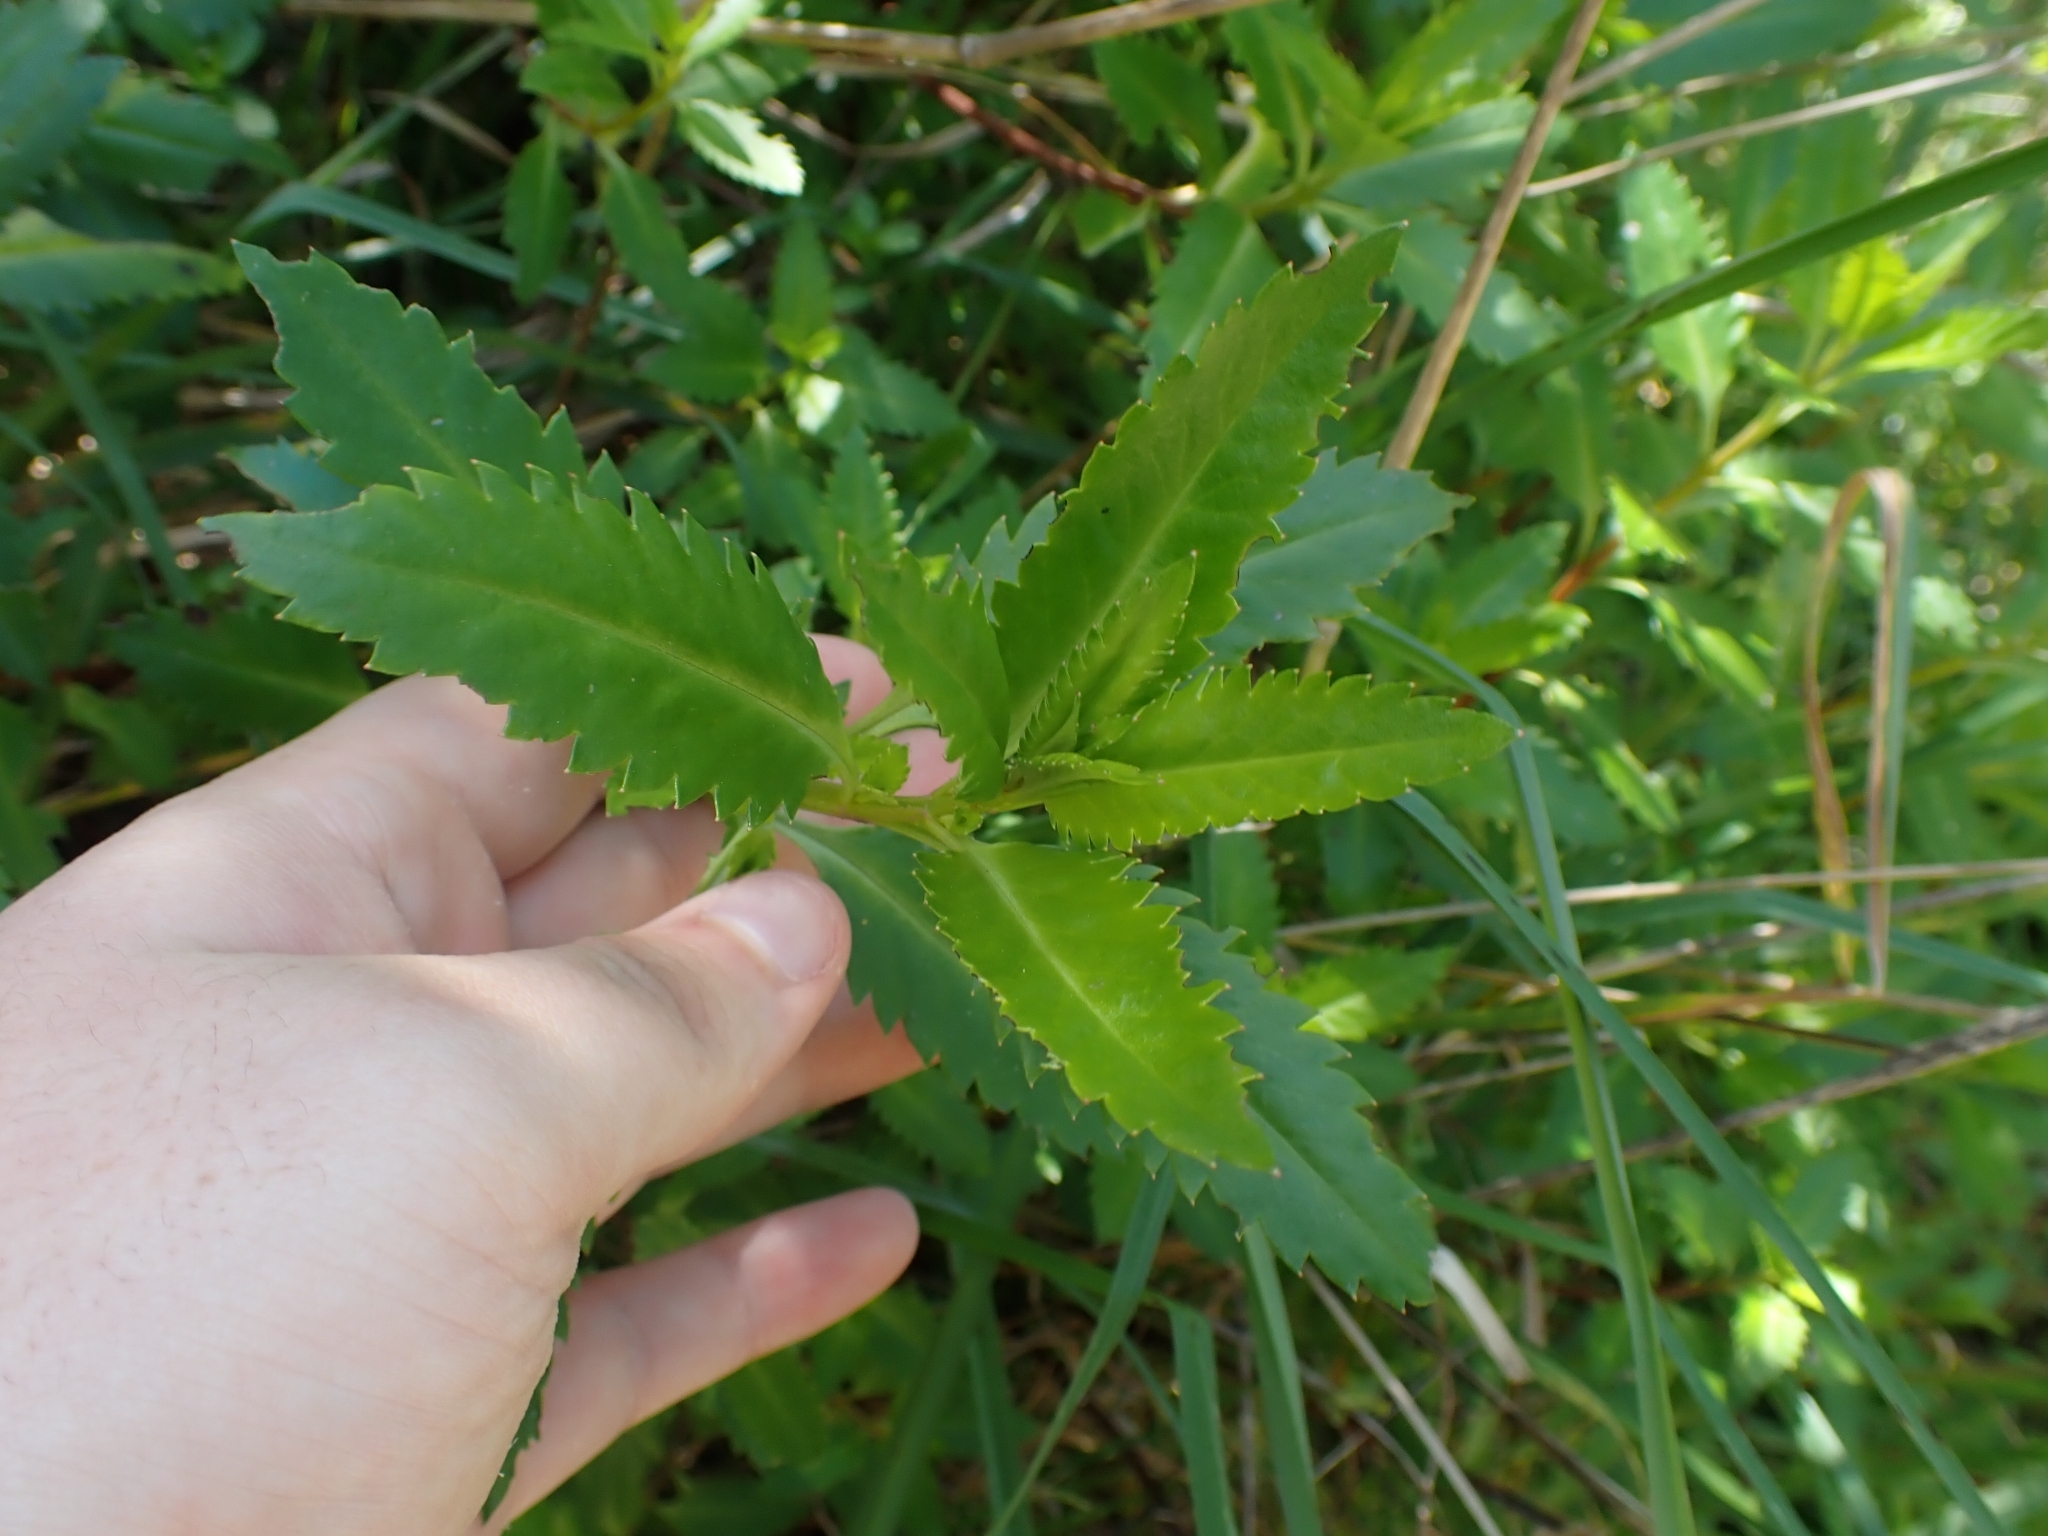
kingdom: Plantae
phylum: Tracheophyta
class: Magnoliopsida
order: Saxifragales
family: Haloragaceae
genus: Haloragis
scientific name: Haloragis erecta
